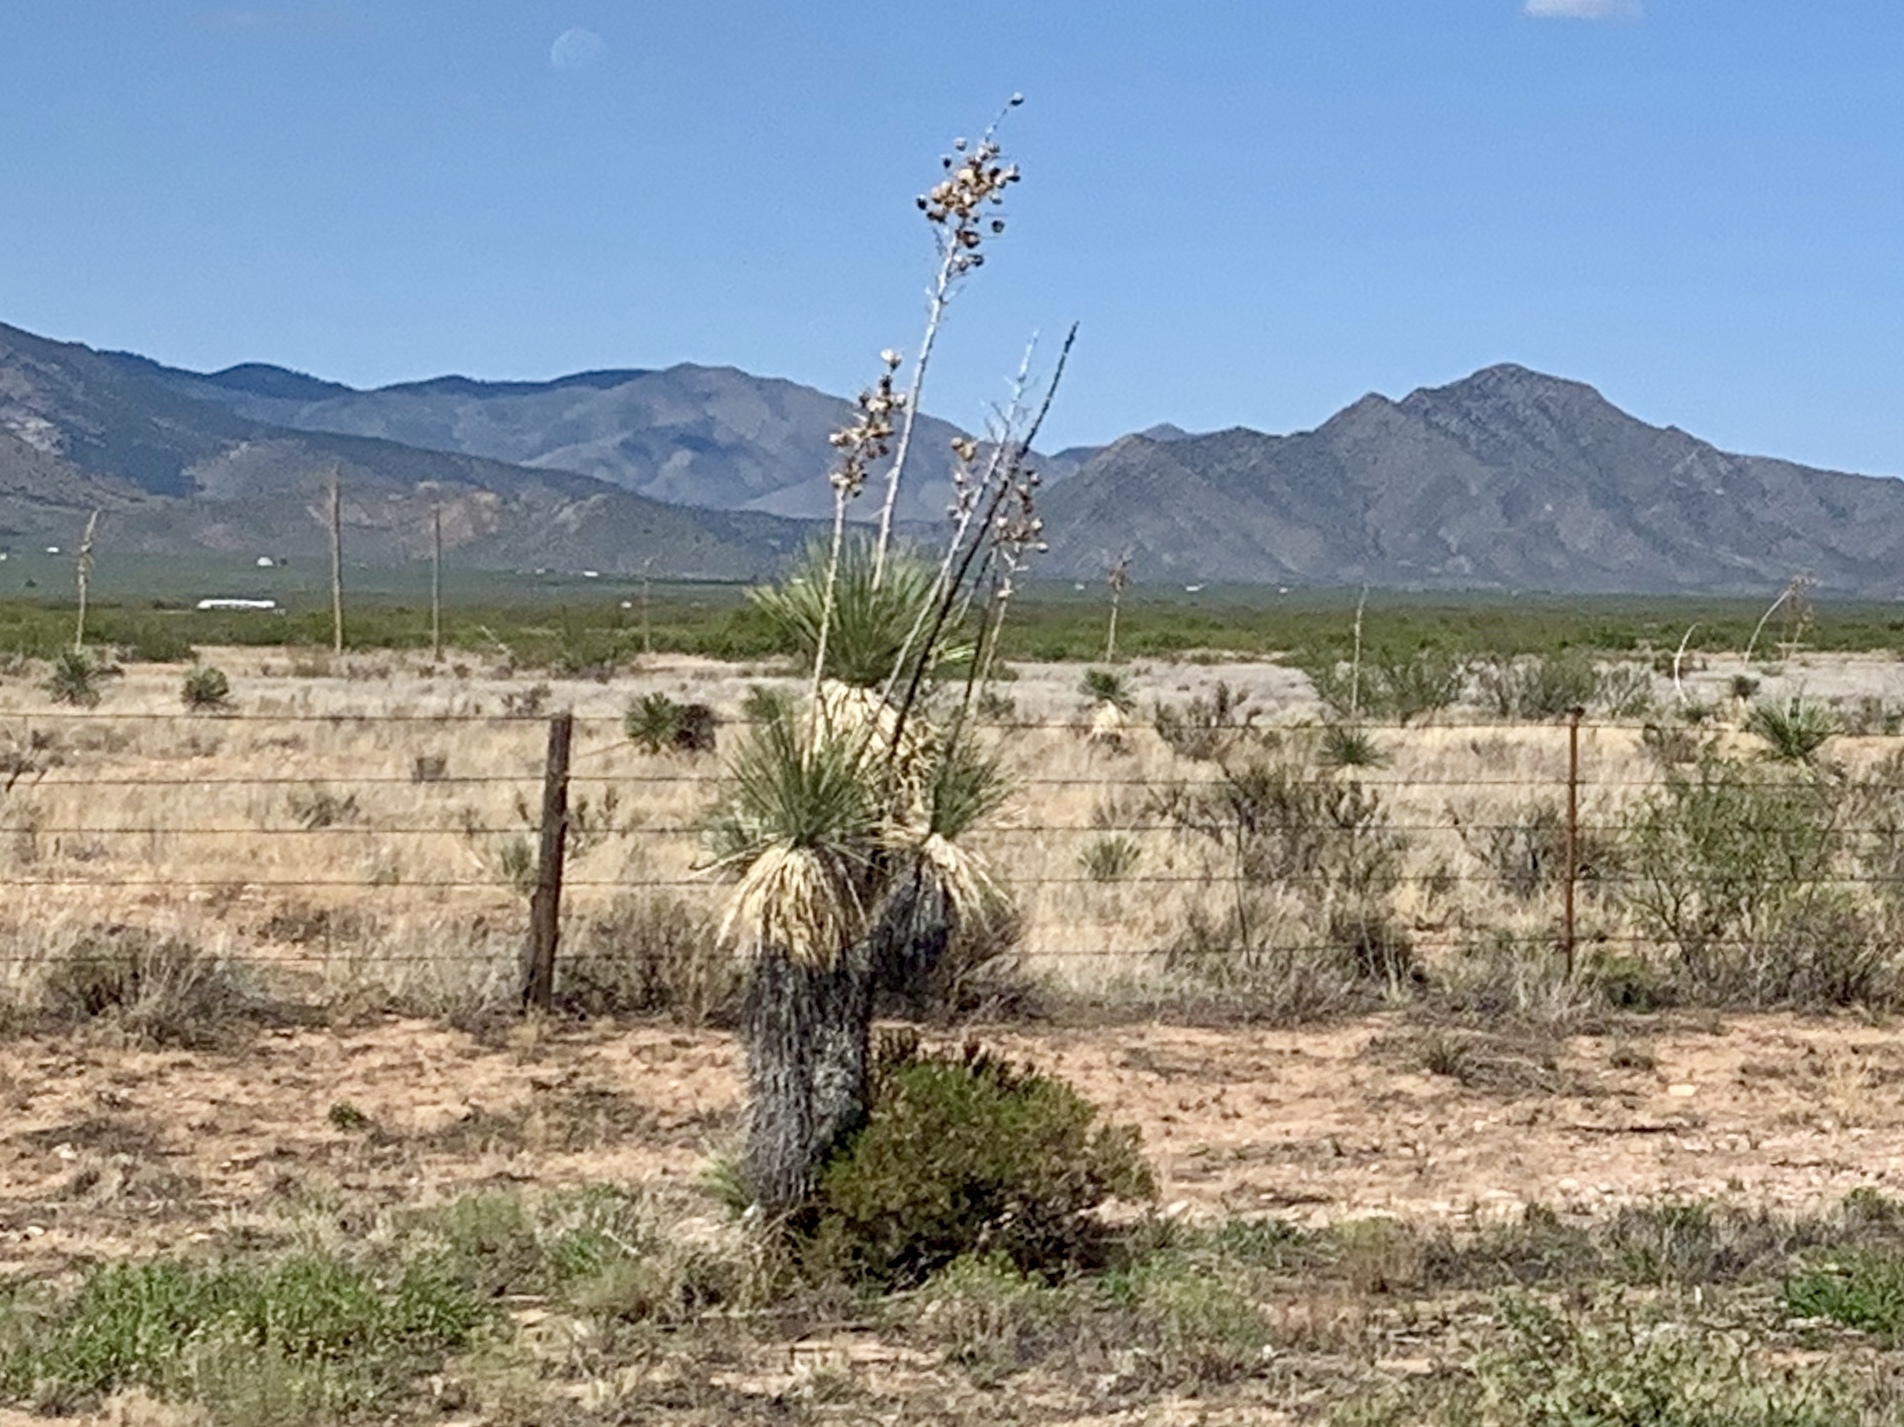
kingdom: Plantae
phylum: Tracheophyta
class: Liliopsida
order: Asparagales
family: Asparagaceae
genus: Yucca
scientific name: Yucca elata
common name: Palmella
